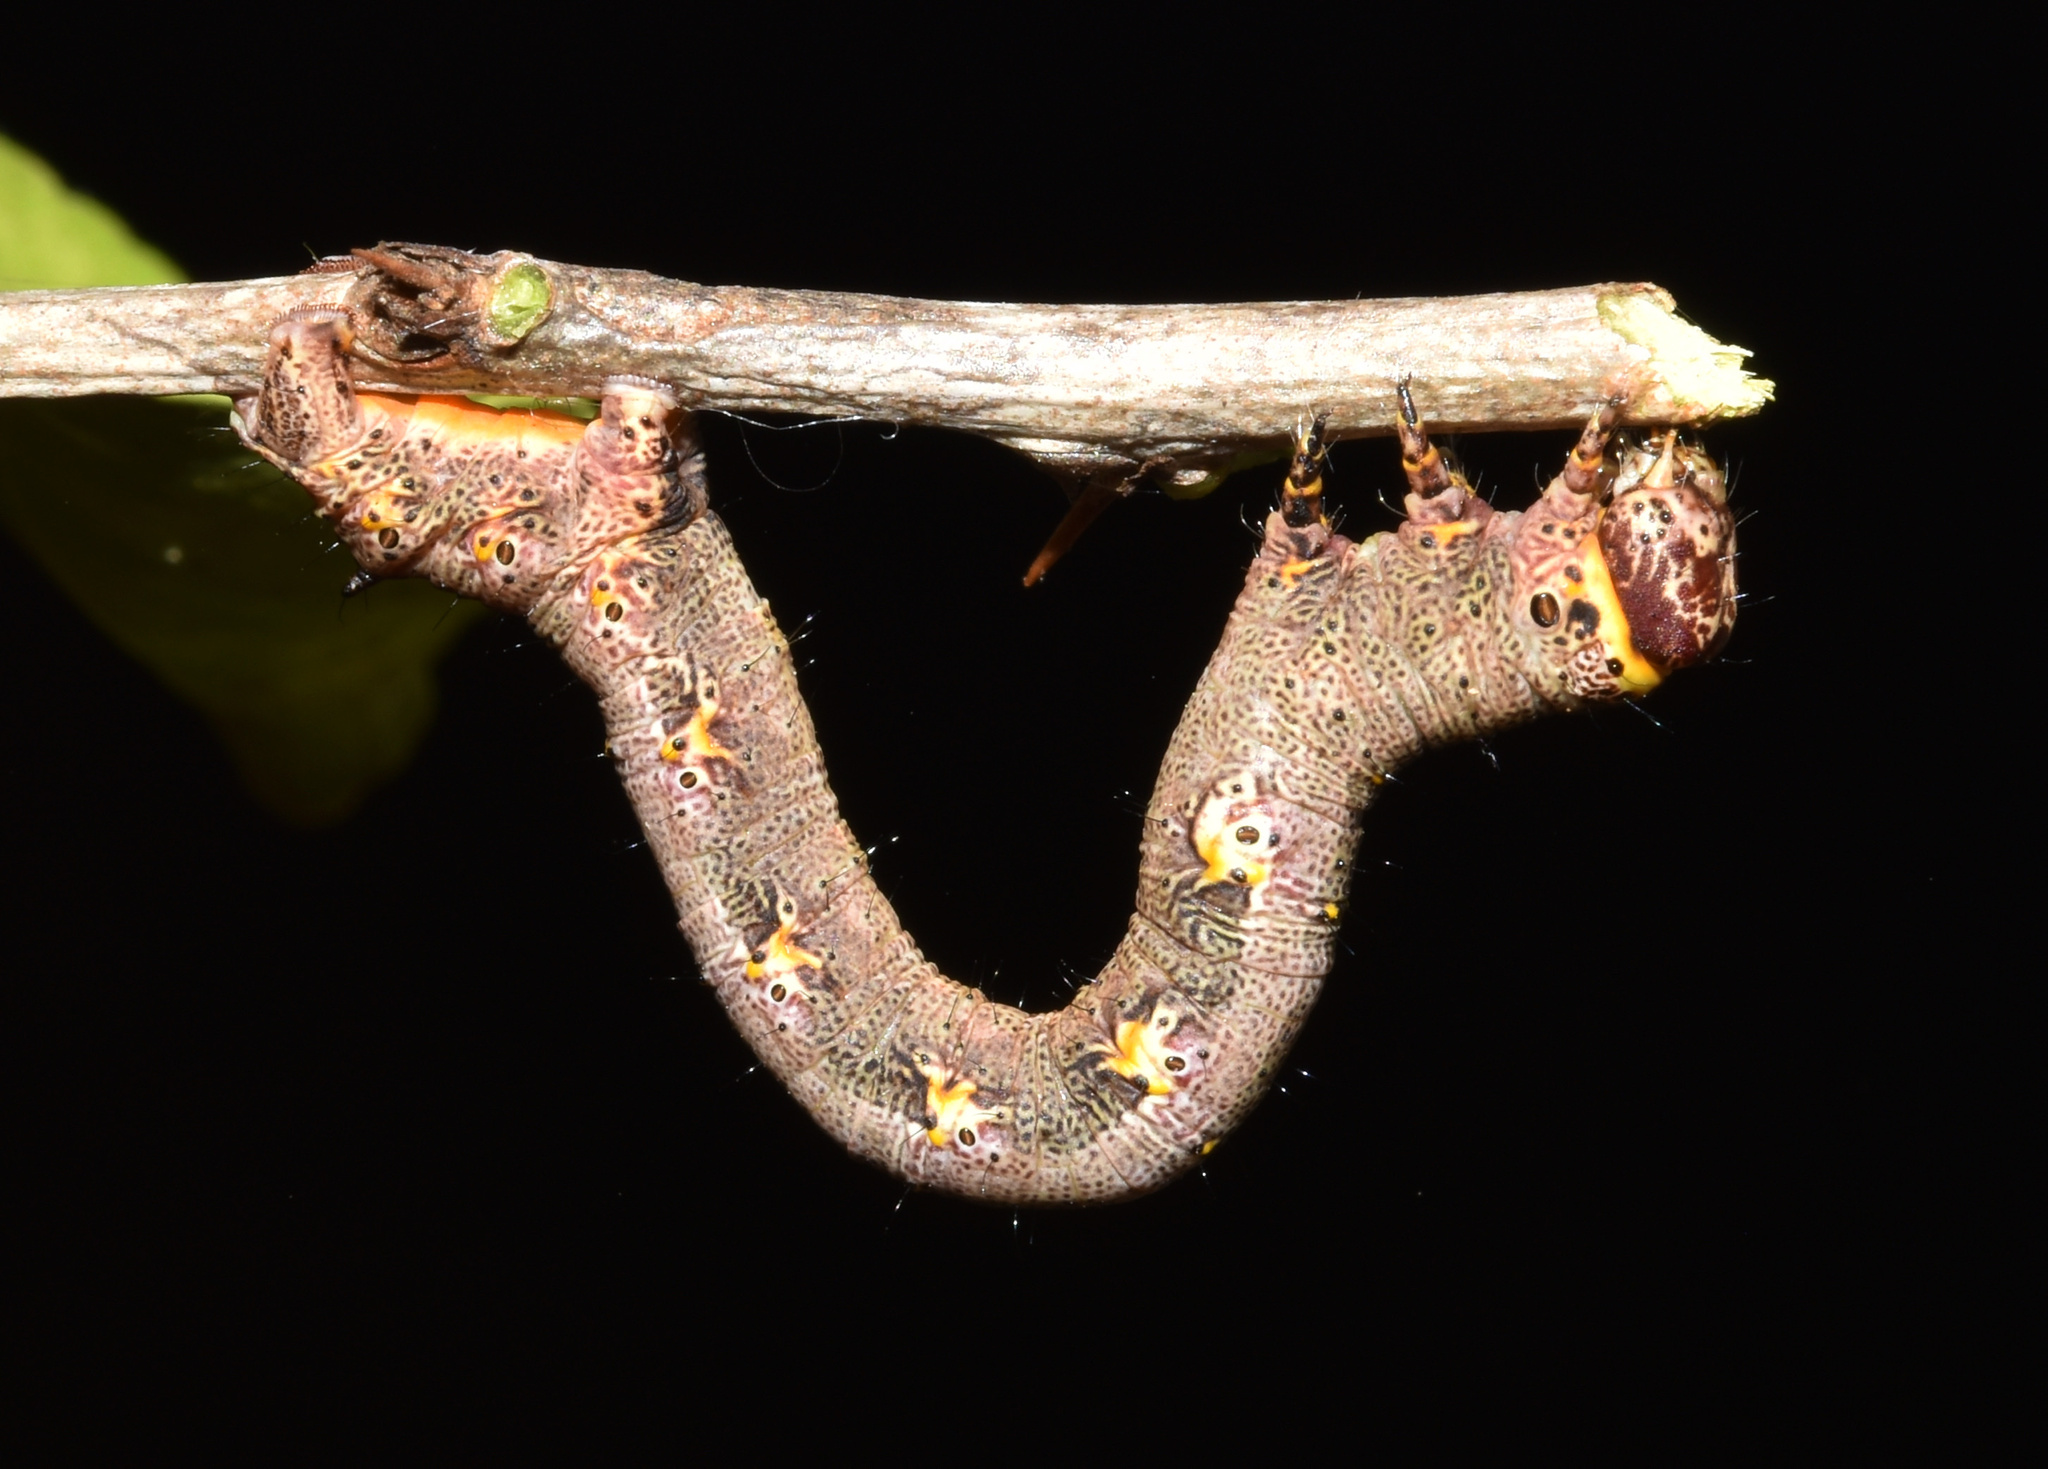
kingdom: Animalia
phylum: Arthropoda
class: Insecta
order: Lepidoptera
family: Geometridae
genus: Aphilopota
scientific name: Aphilopota mailaria
